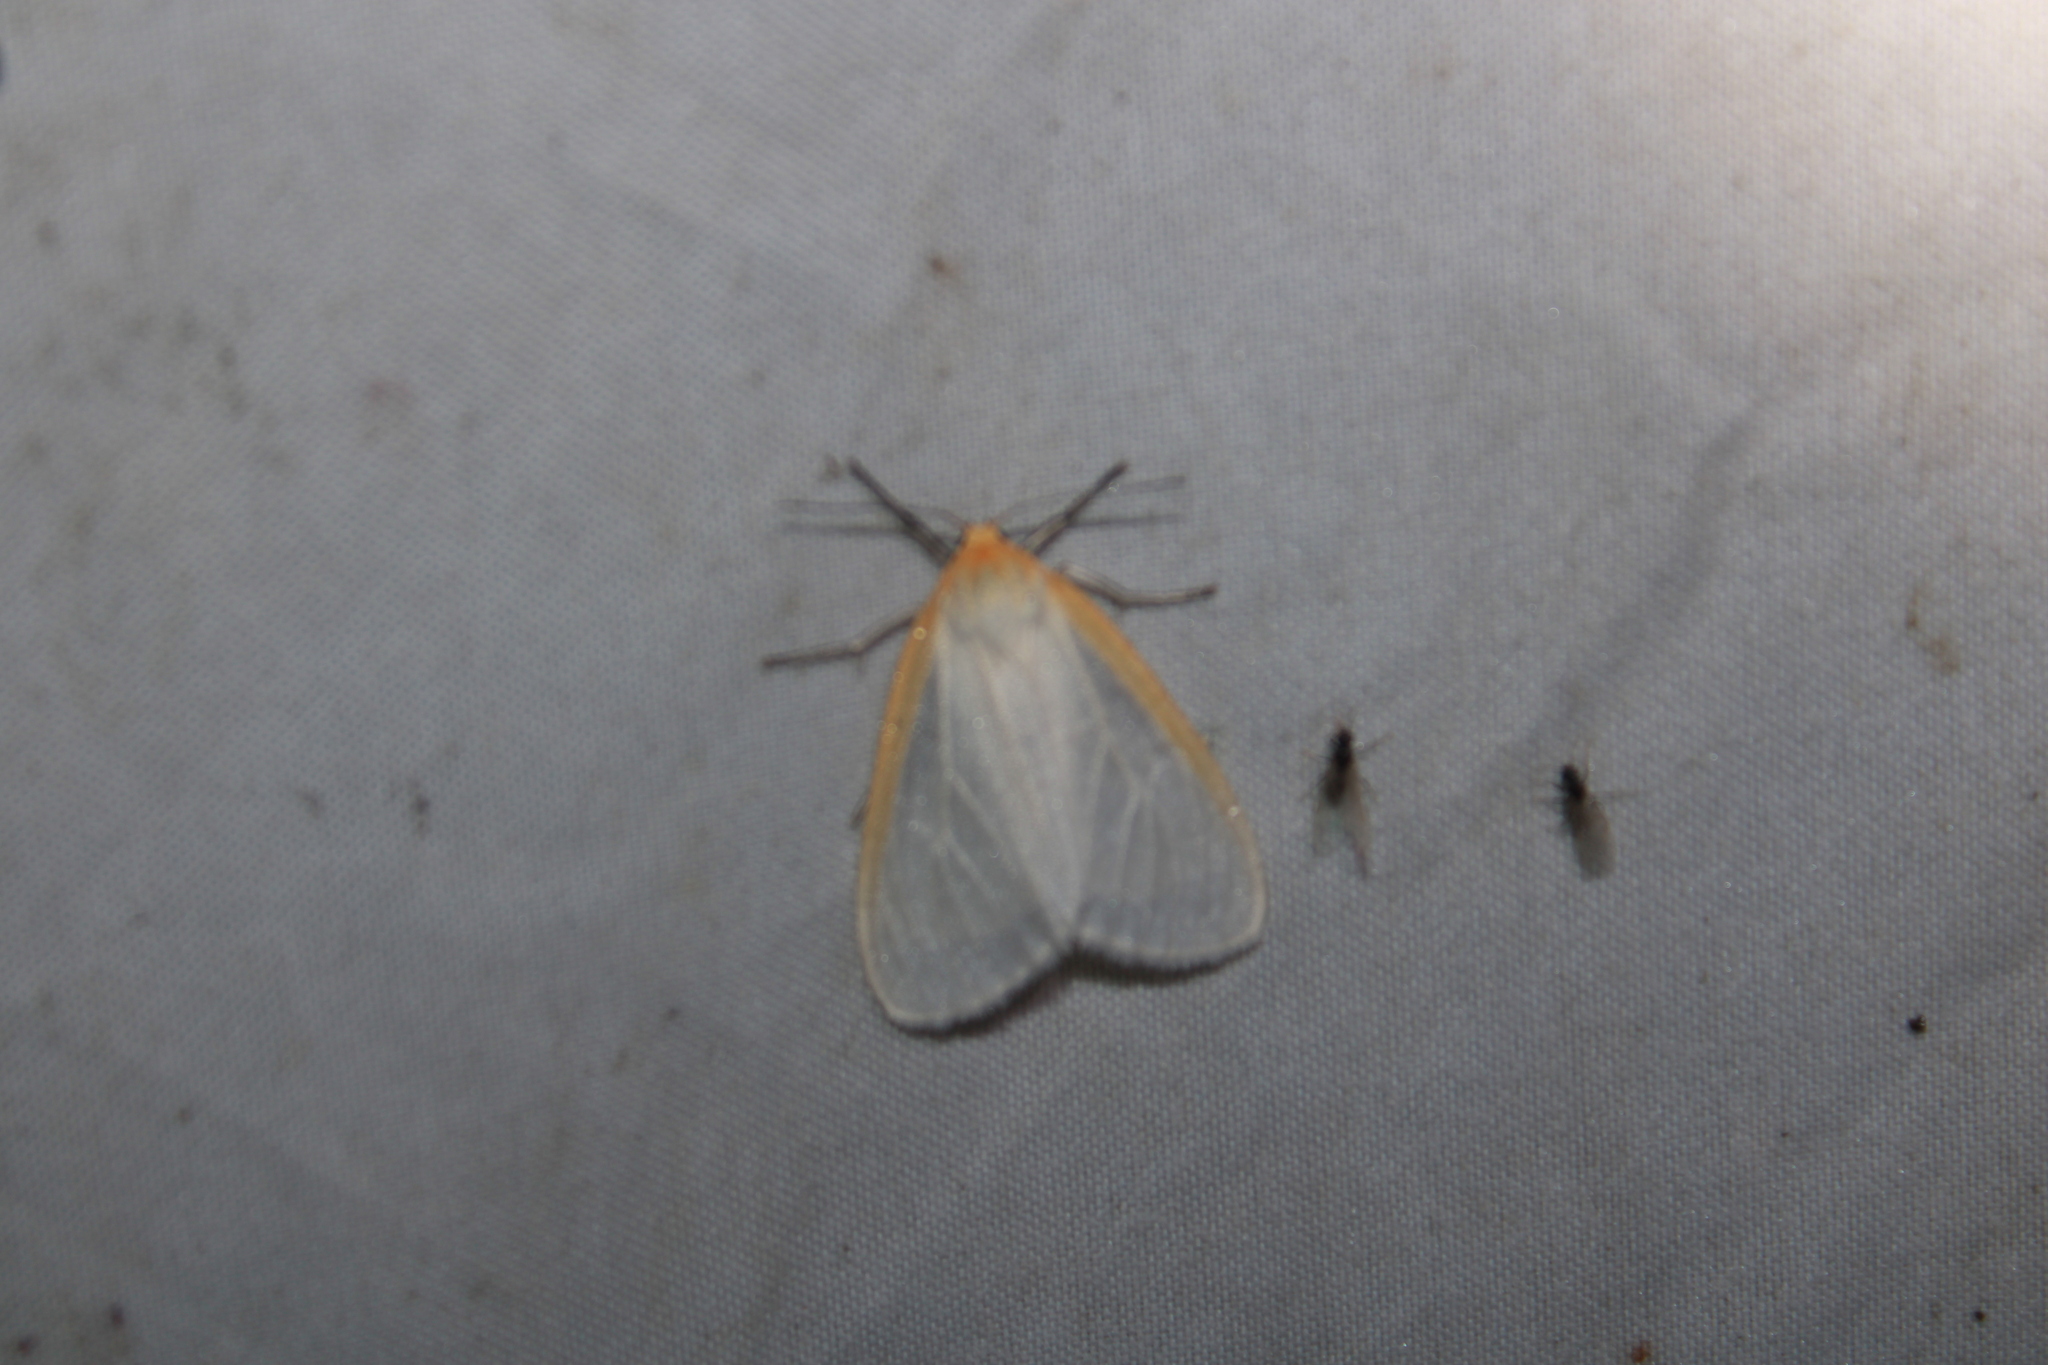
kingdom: Animalia
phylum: Arthropoda
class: Insecta
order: Lepidoptera
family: Erebidae
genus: Cycnia
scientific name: Cycnia tenera
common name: Delicate cycnia moth
